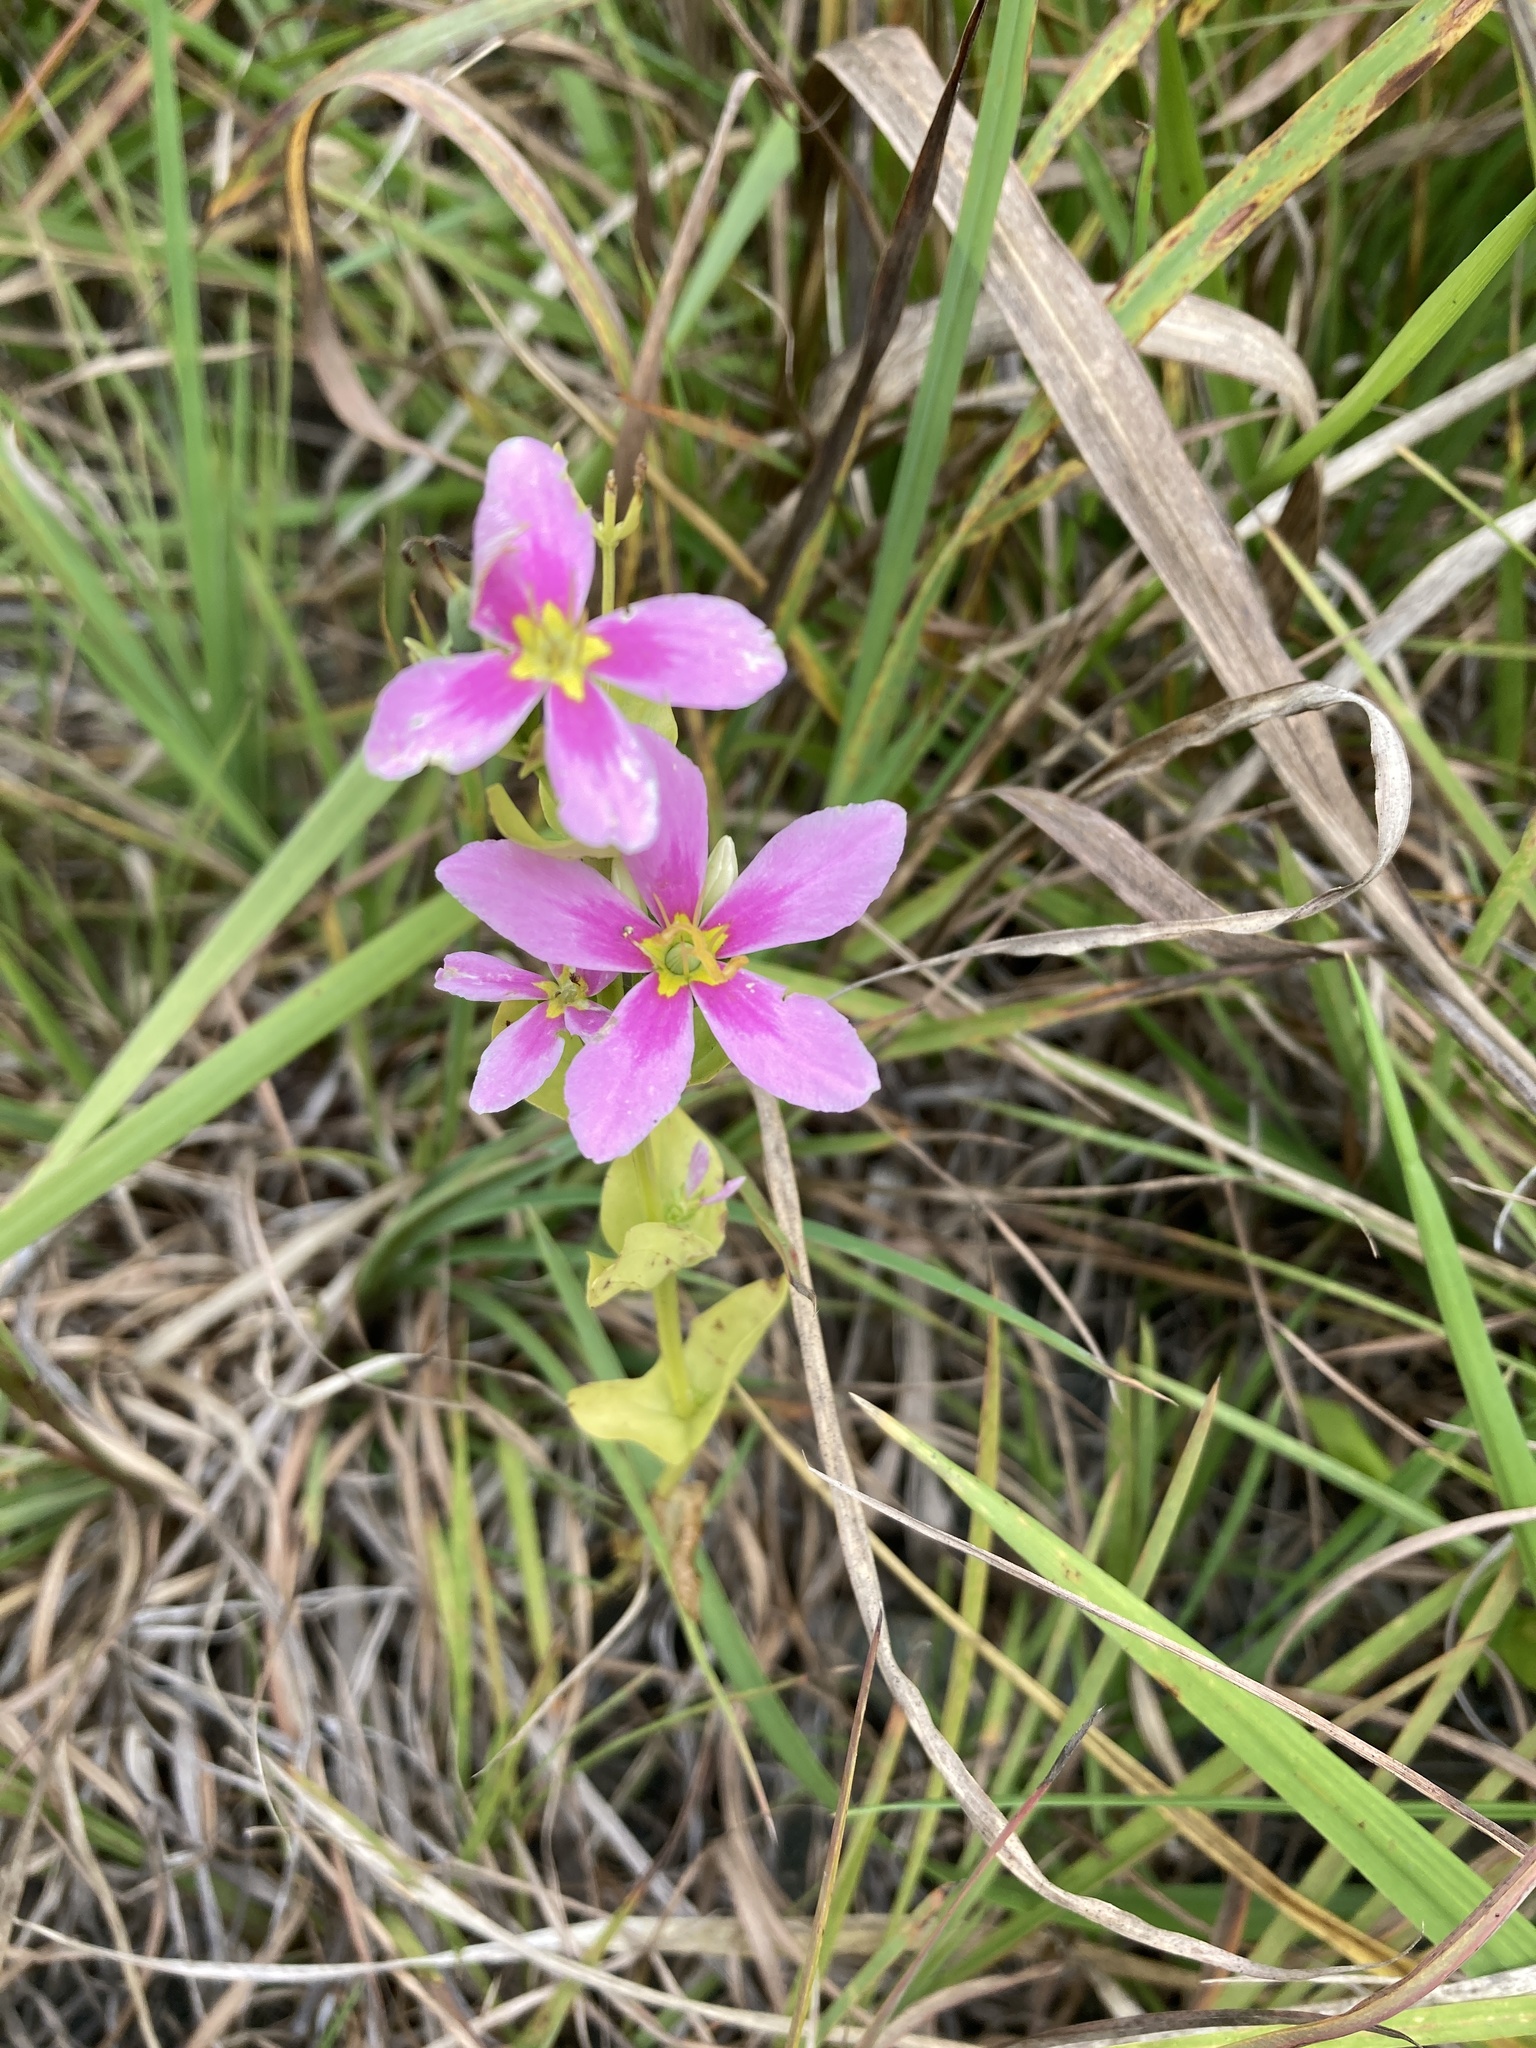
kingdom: Plantae
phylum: Tracheophyta
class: Magnoliopsida
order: Gentianales
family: Gentianaceae
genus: Sabatia
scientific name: Sabatia angularis
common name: Rose-pink
